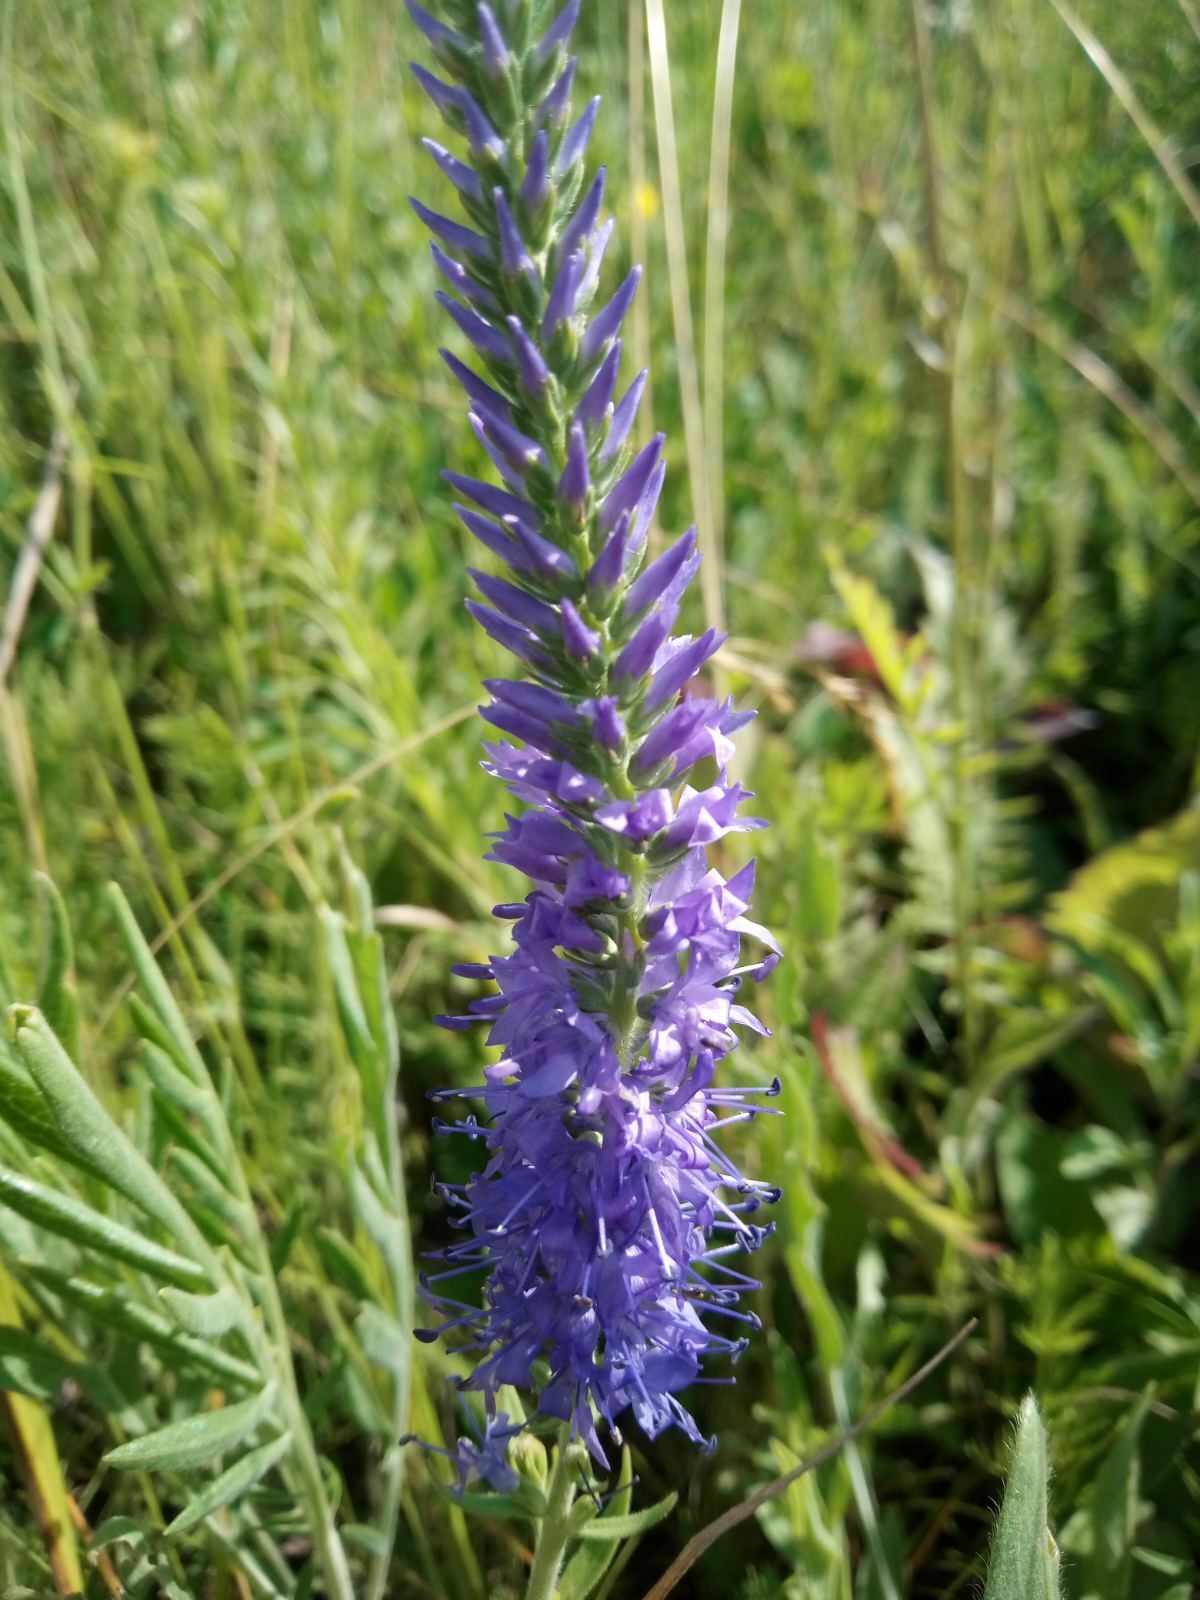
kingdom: Plantae
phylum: Tracheophyta
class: Magnoliopsida
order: Lamiales
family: Plantaginaceae
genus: Veronica
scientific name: Veronica barrelieri
